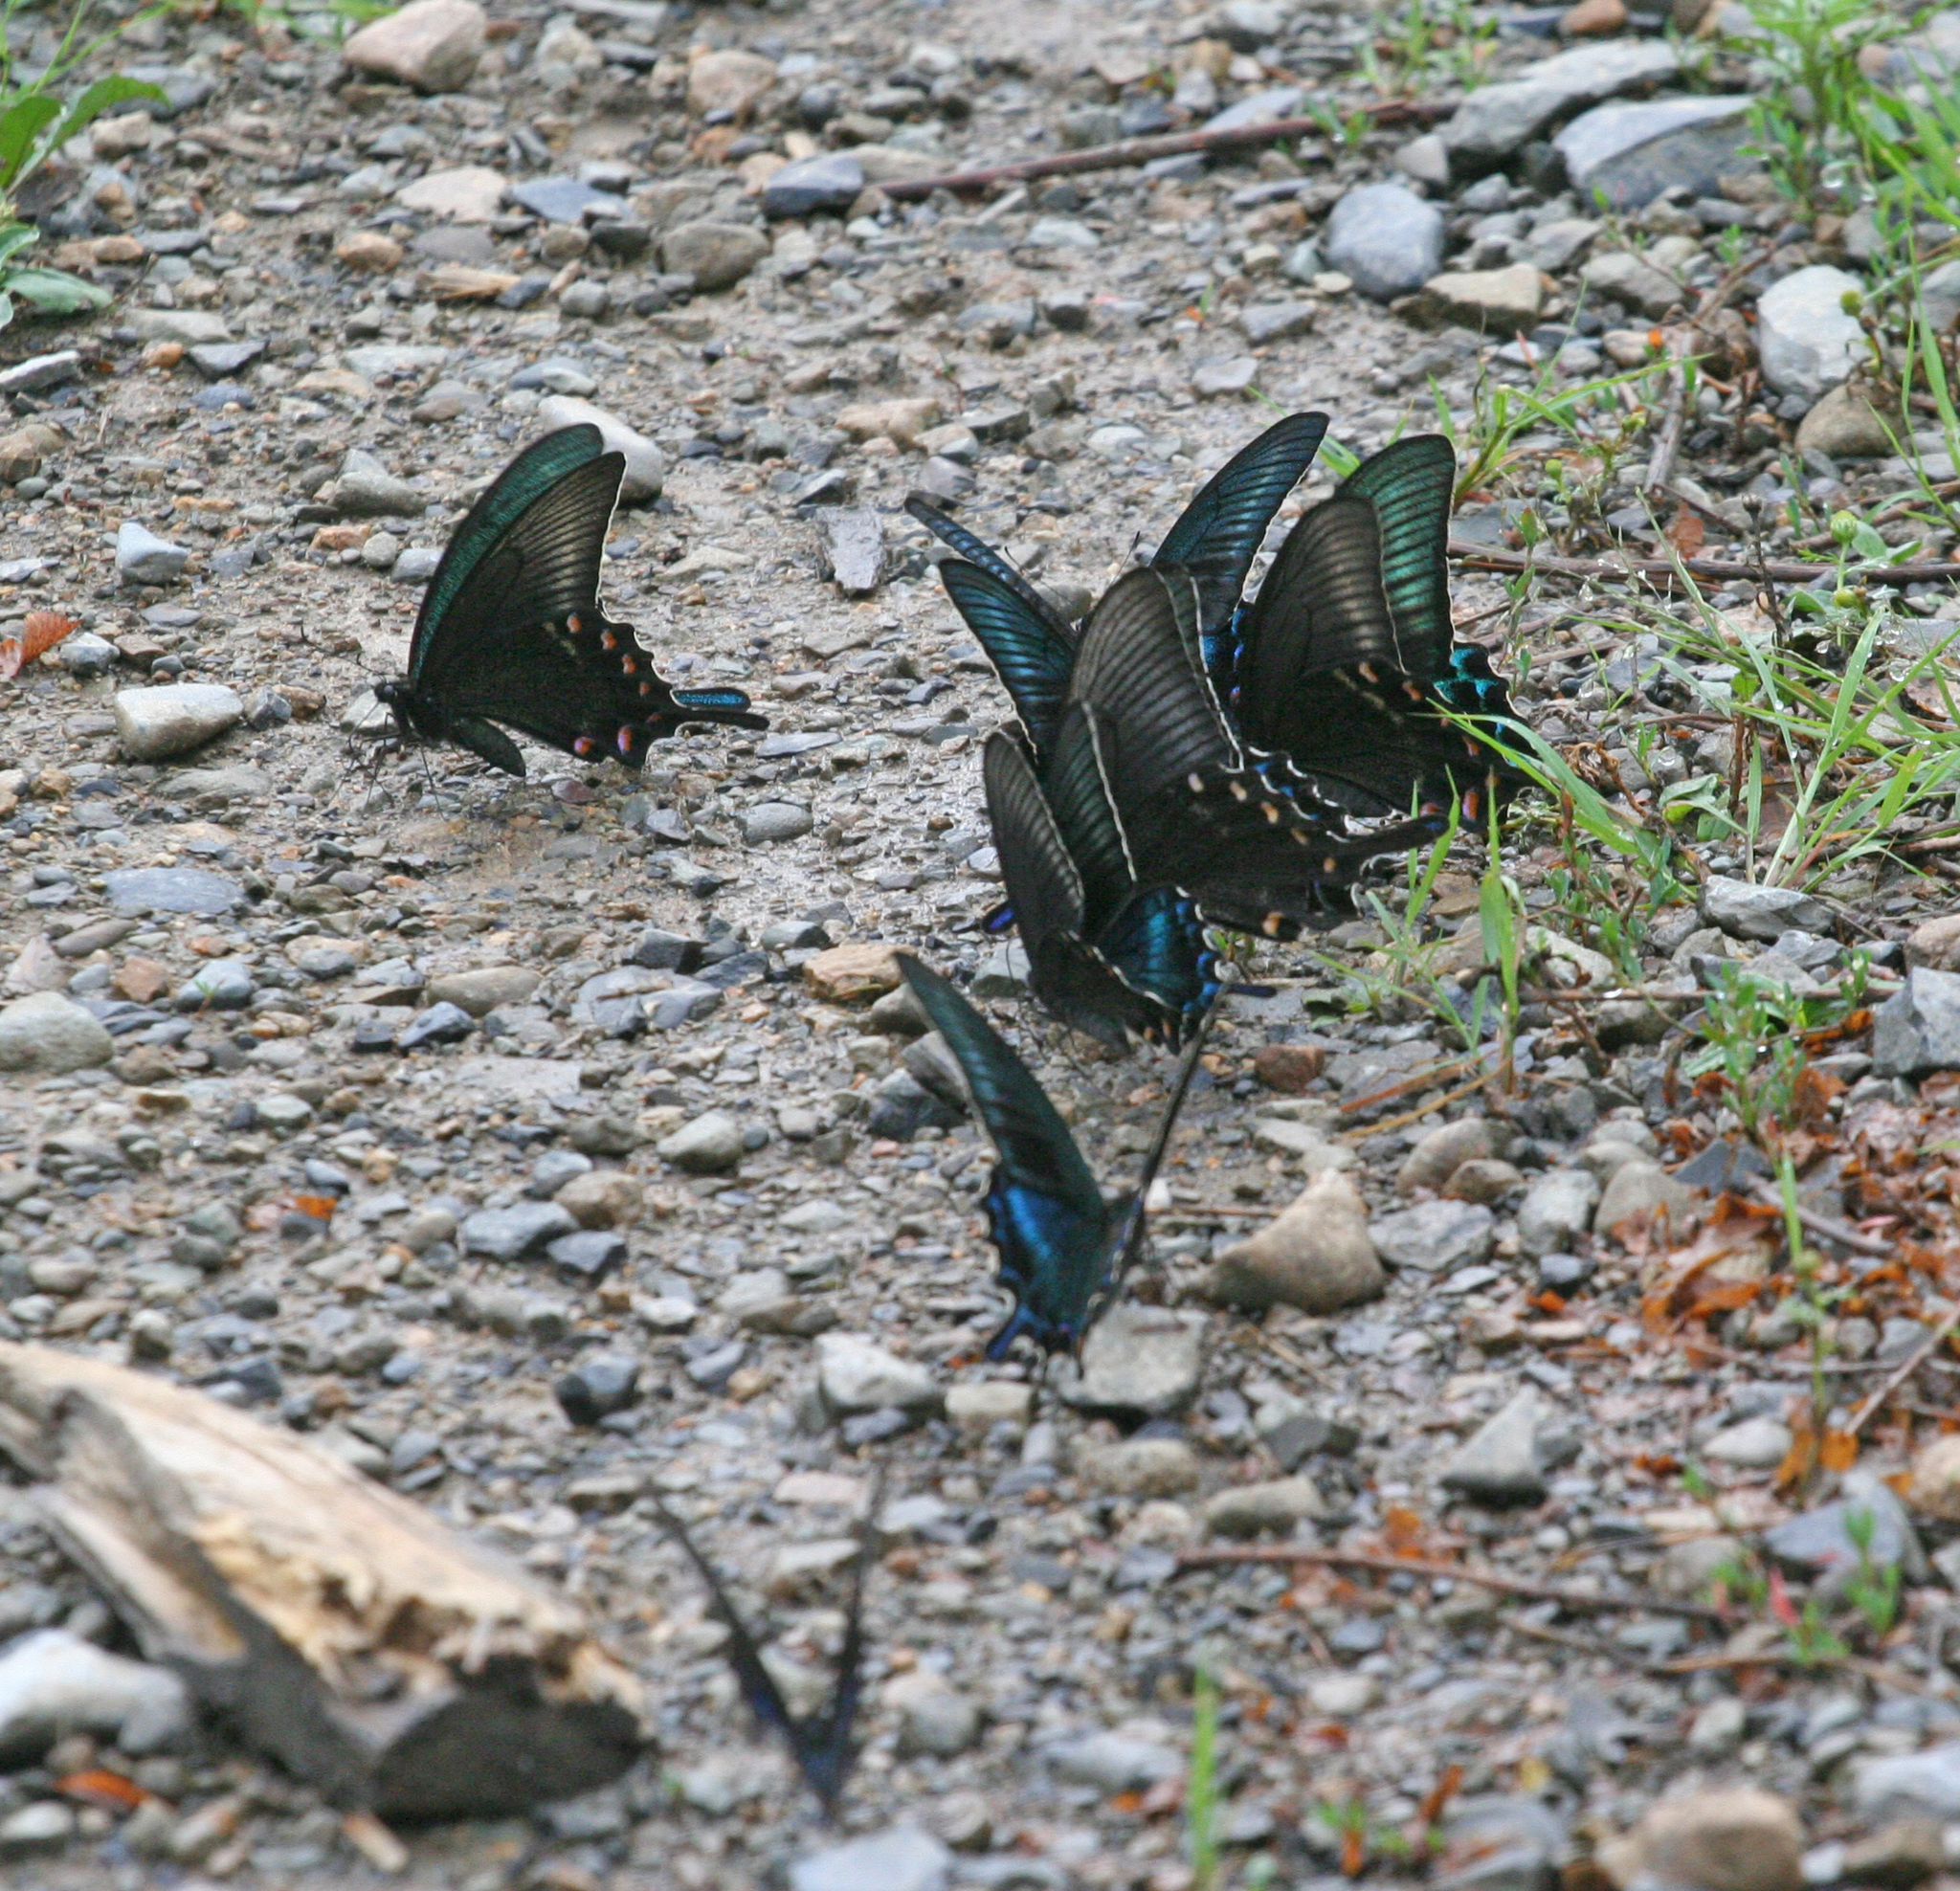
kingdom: Animalia
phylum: Arthropoda
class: Insecta
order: Lepidoptera
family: Papilionidae
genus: Papilio
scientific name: Papilio maackii
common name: Alpine black swallowtail
